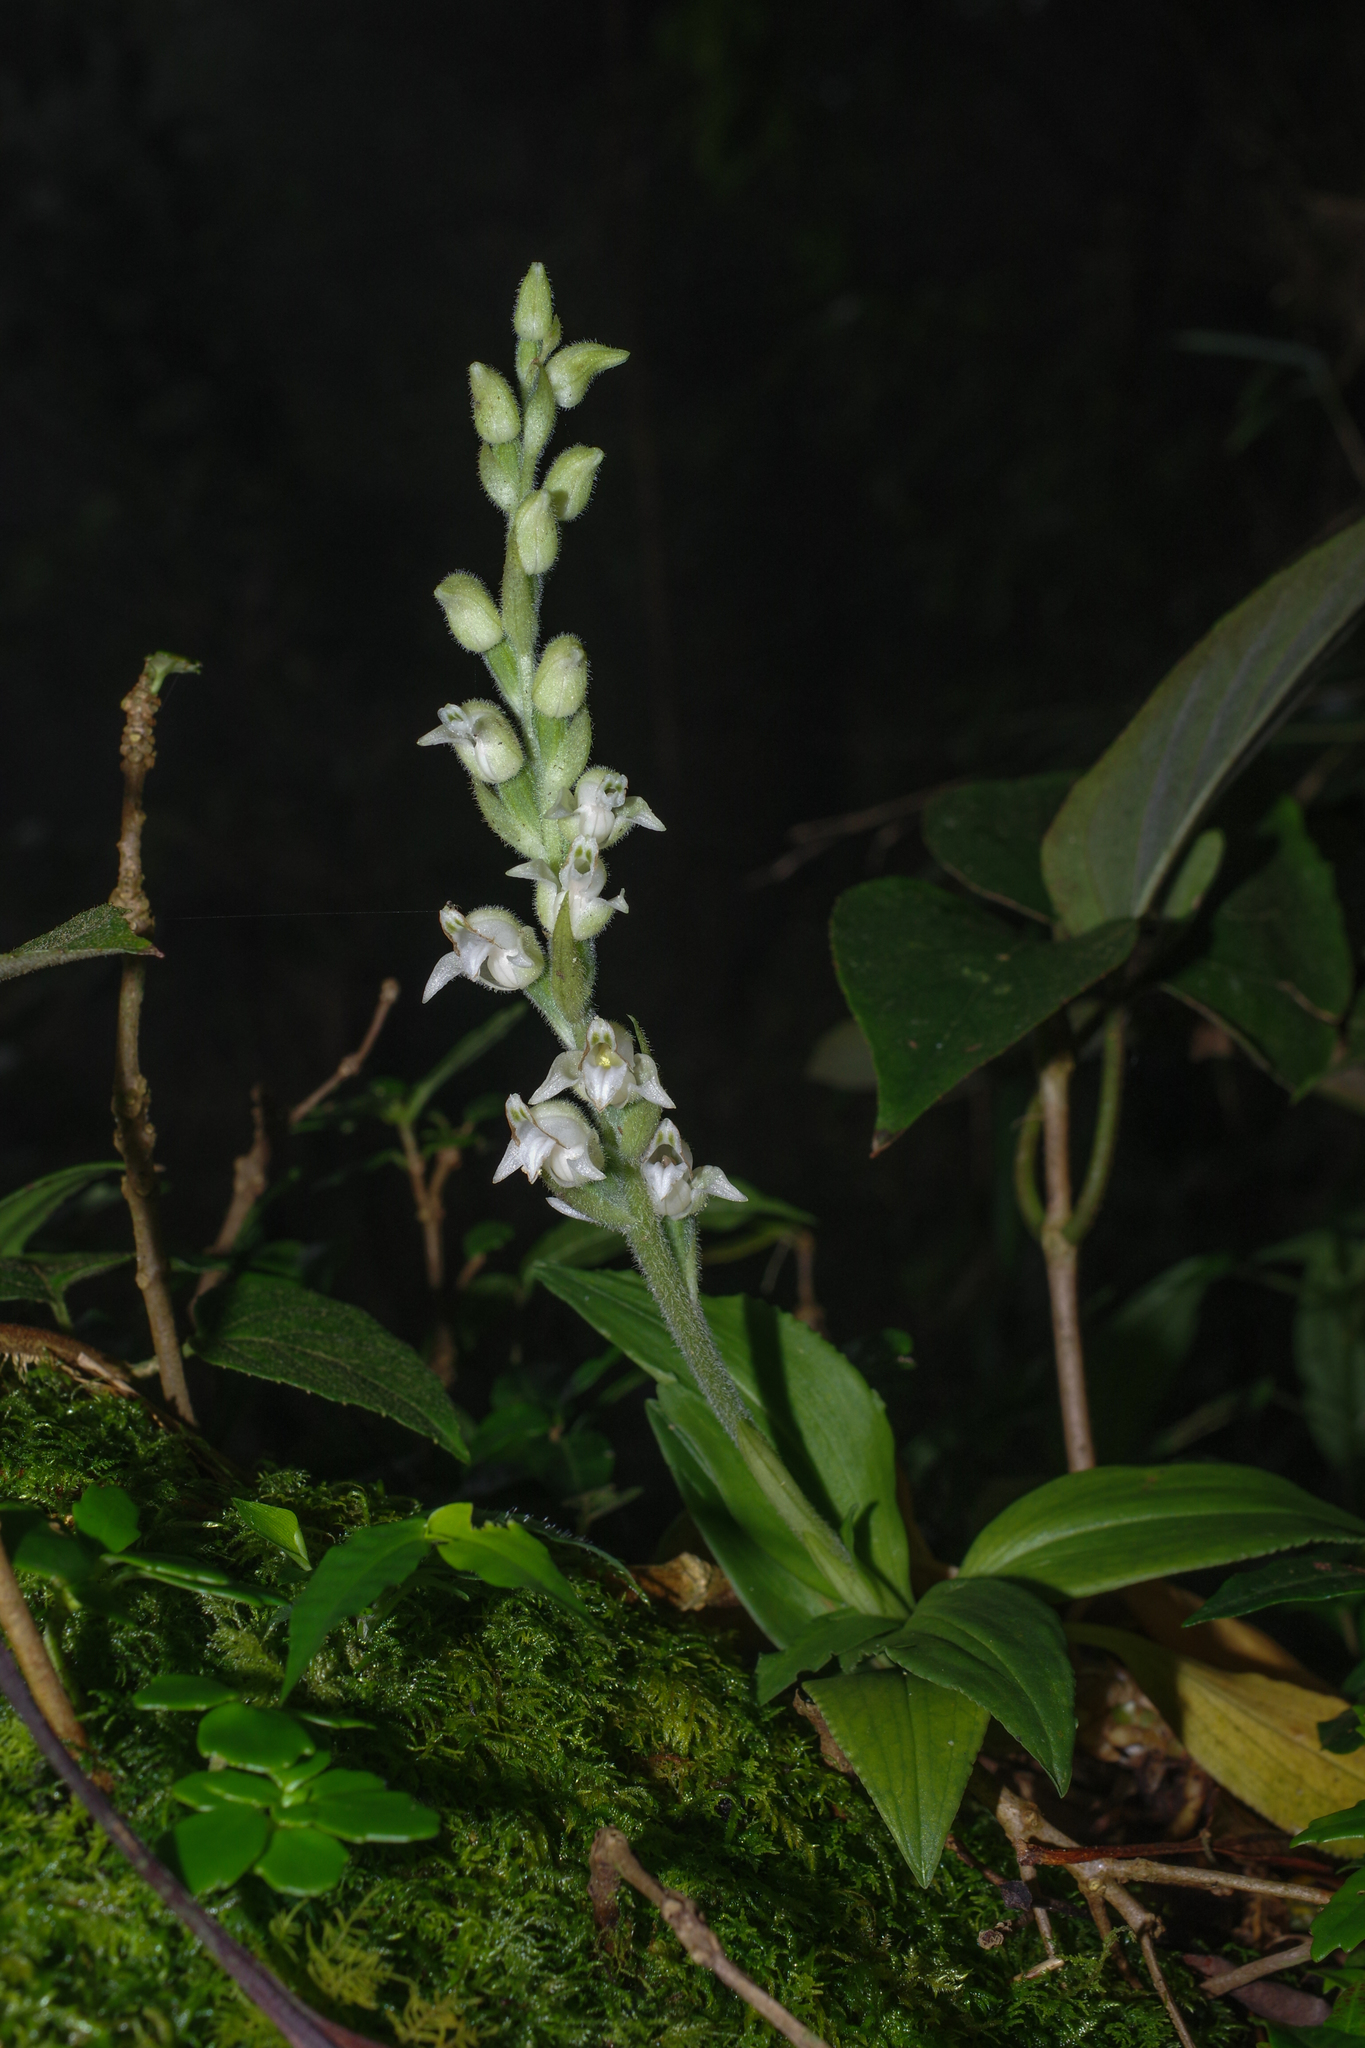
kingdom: Plantae
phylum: Tracheophyta
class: Liliopsida
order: Asparagales
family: Orchidaceae
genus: Goodyera
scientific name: Goodyera robusta
